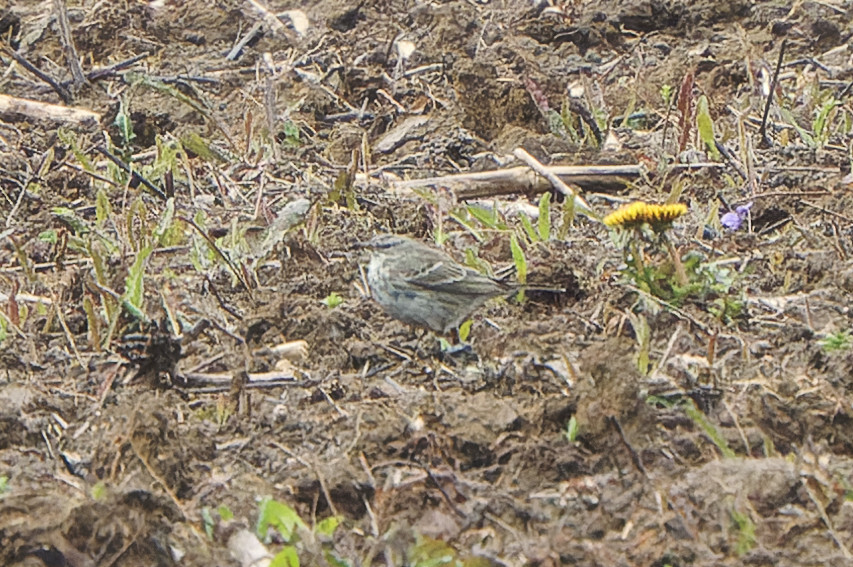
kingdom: Animalia
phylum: Chordata
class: Aves
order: Passeriformes
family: Motacillidae
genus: Anthus
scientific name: Anthus spinoletta
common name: Water pipit
